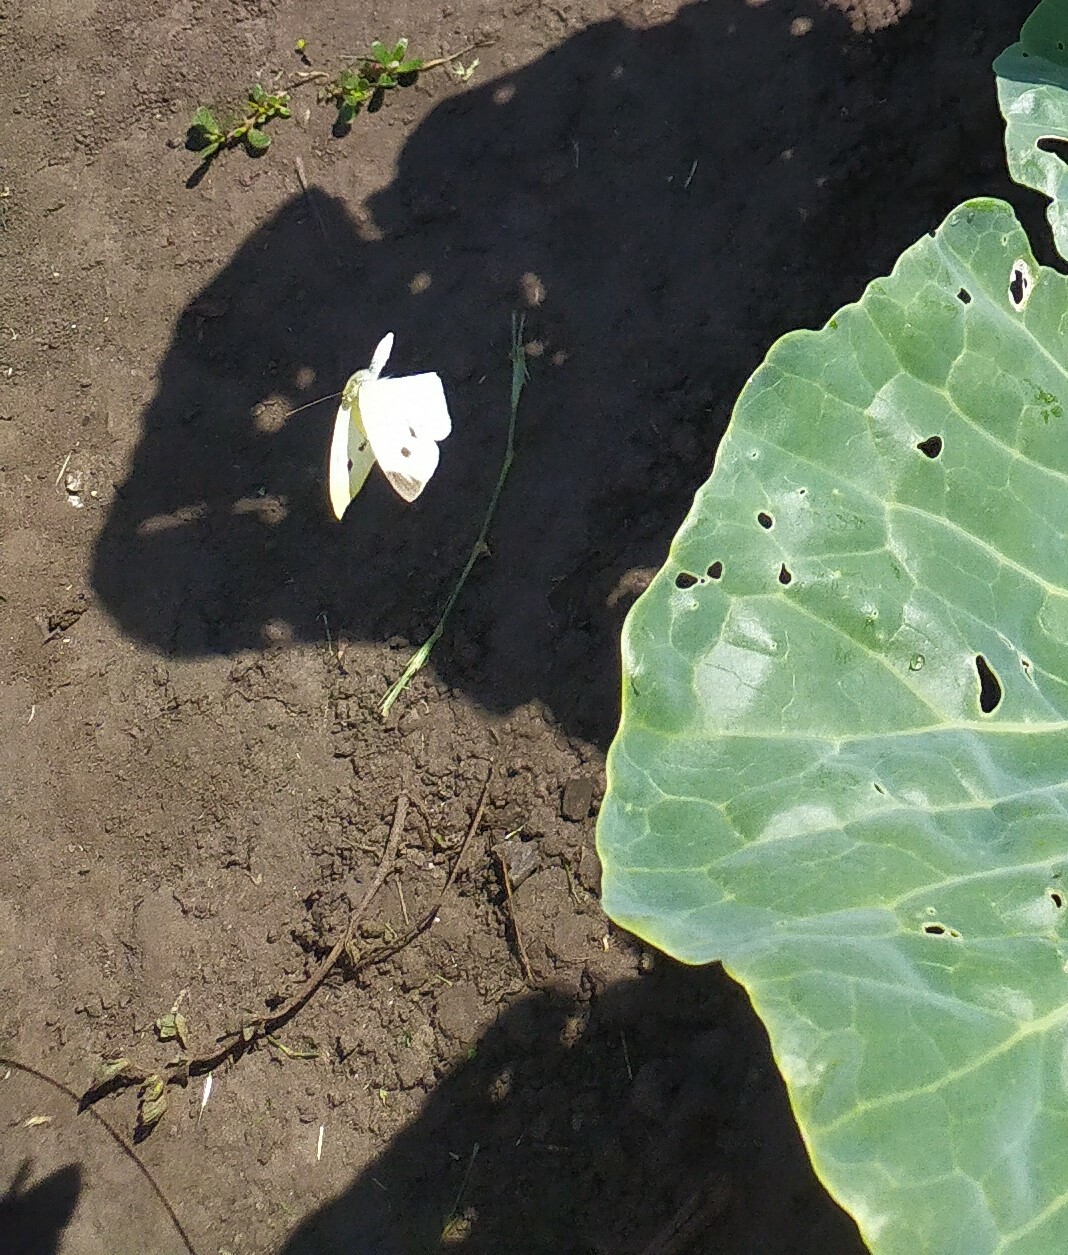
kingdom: Animalia
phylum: Arthropoda
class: Insecta
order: Lepidoptera
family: Pieridae
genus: Pieris
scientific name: Pieris rapae
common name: Small white
